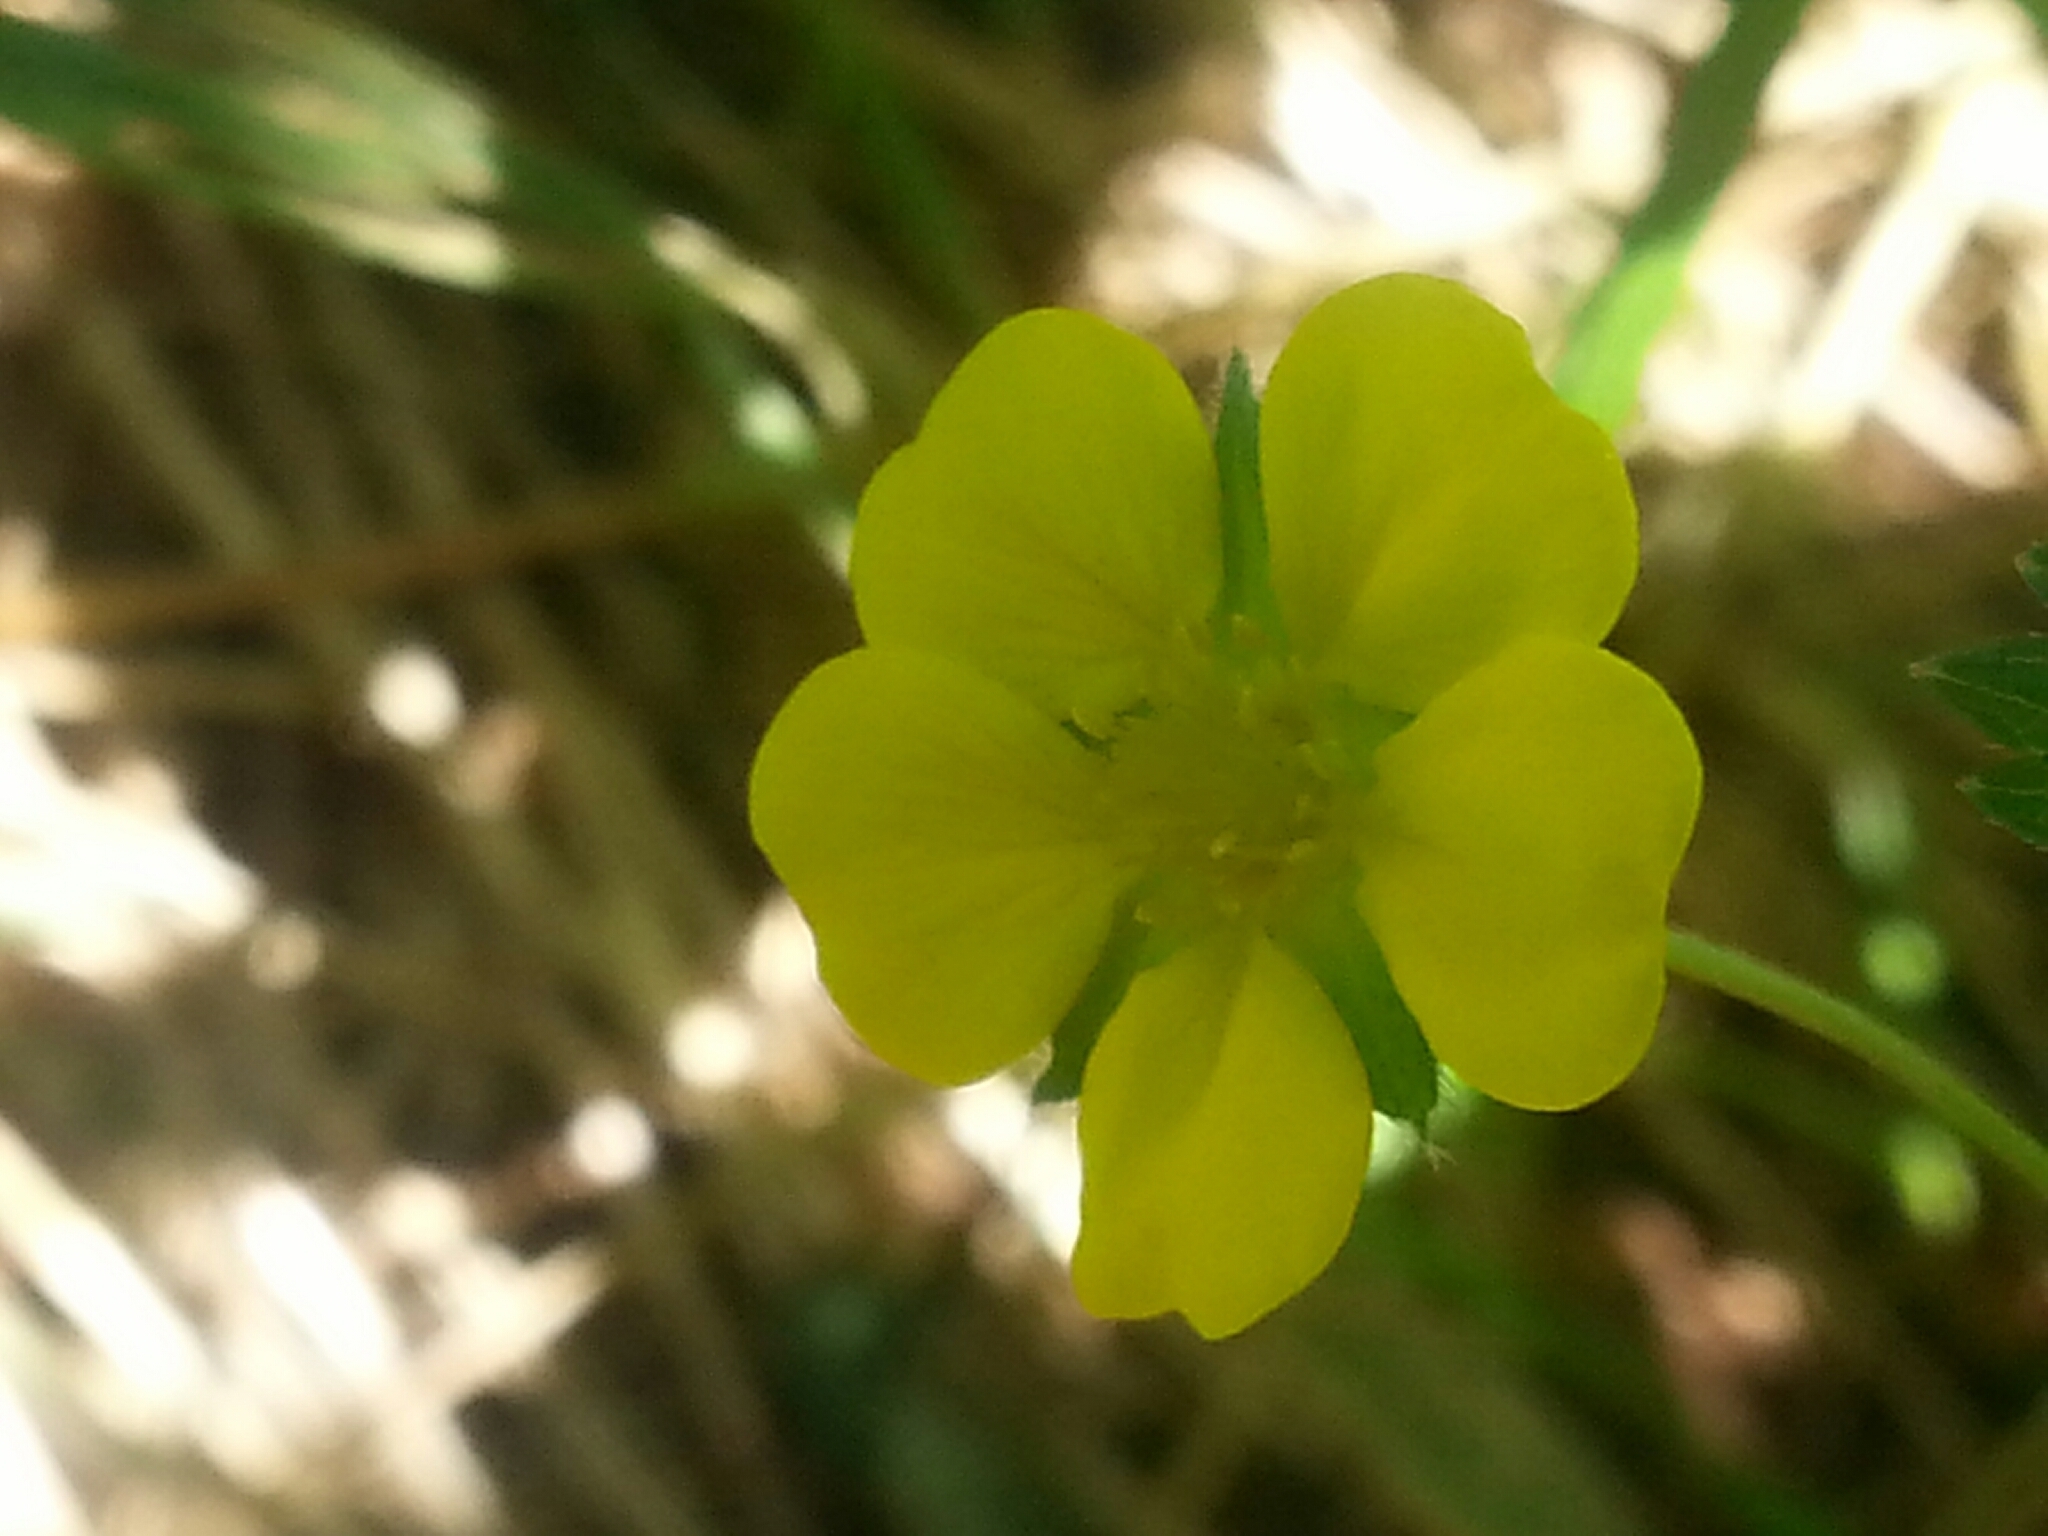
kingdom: Plantae
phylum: Tracheophyta
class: Magnoliopsida
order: Rosales
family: Rosaceae
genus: Potentilla
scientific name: Potentilla simplex
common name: Old field cinquefoil
